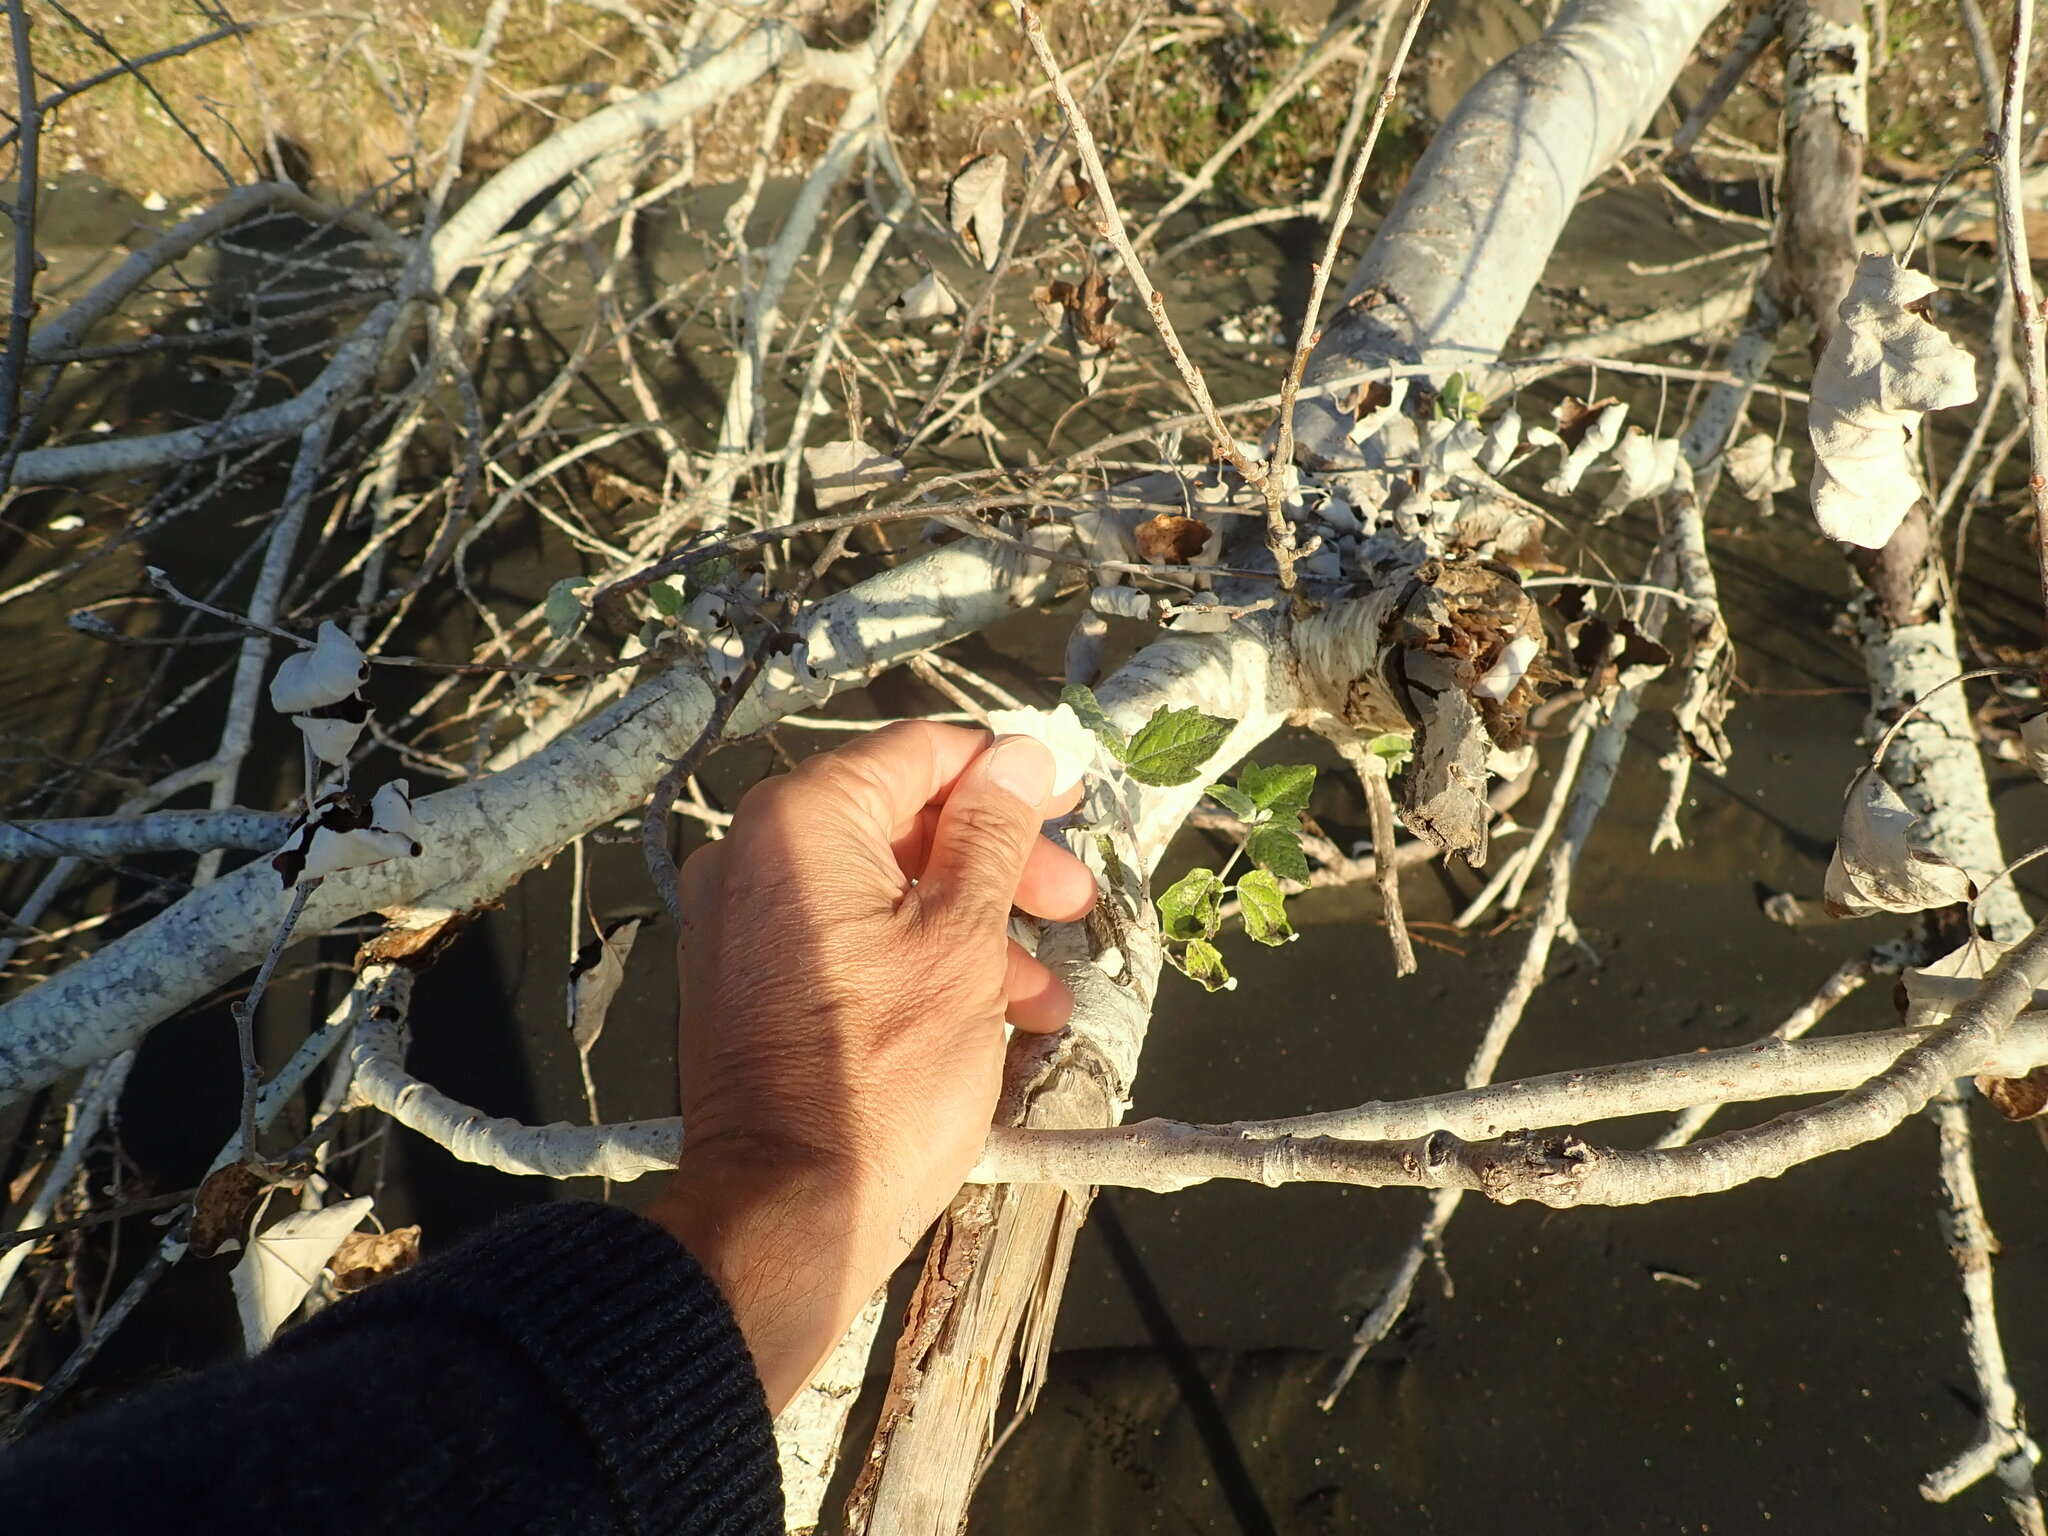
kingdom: Plantae
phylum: Tracheophyta
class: Magnoliopsida
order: Malpighiales
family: Salicaceae
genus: Populus
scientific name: Populus alba
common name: White poplar
